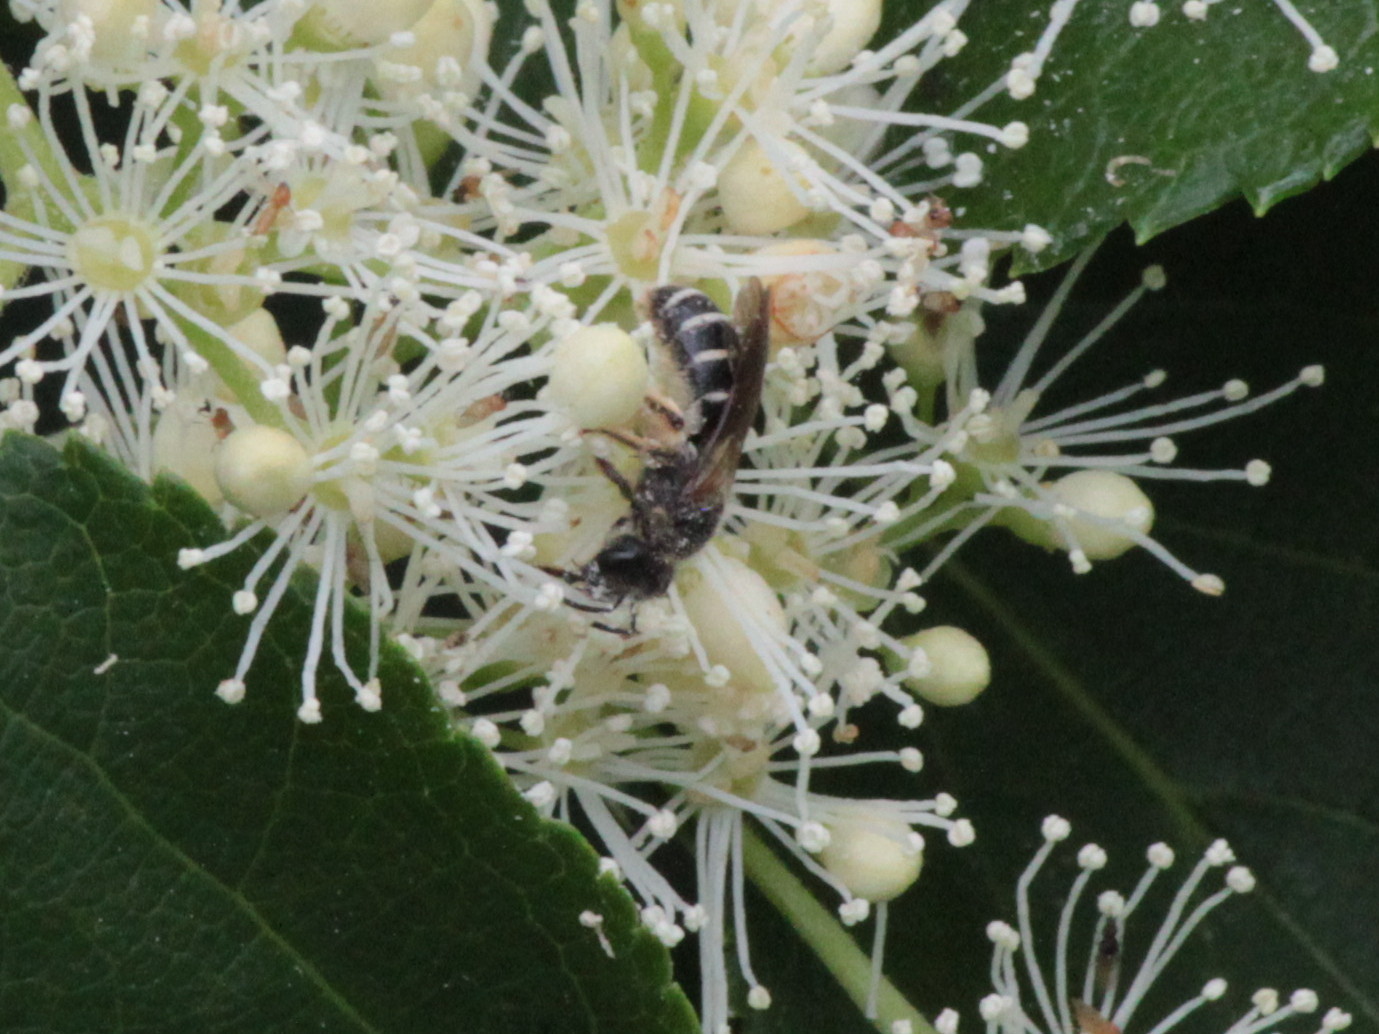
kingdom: Animalia
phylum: Arthropoda
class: Insecta
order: Hymenoptera
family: Halictidae
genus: Halictus
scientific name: Halictus rubicundus
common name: Orange-legged furrow bee
